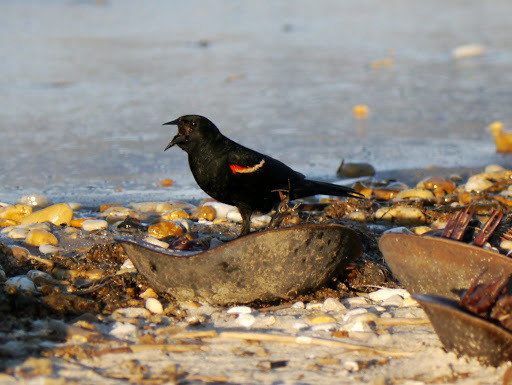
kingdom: Animalia
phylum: Chordata
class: Aves
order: Passeriformes
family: Icteridae
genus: Agelaius
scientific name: Agelaius phoeniceus
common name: Red-winged blackbird
